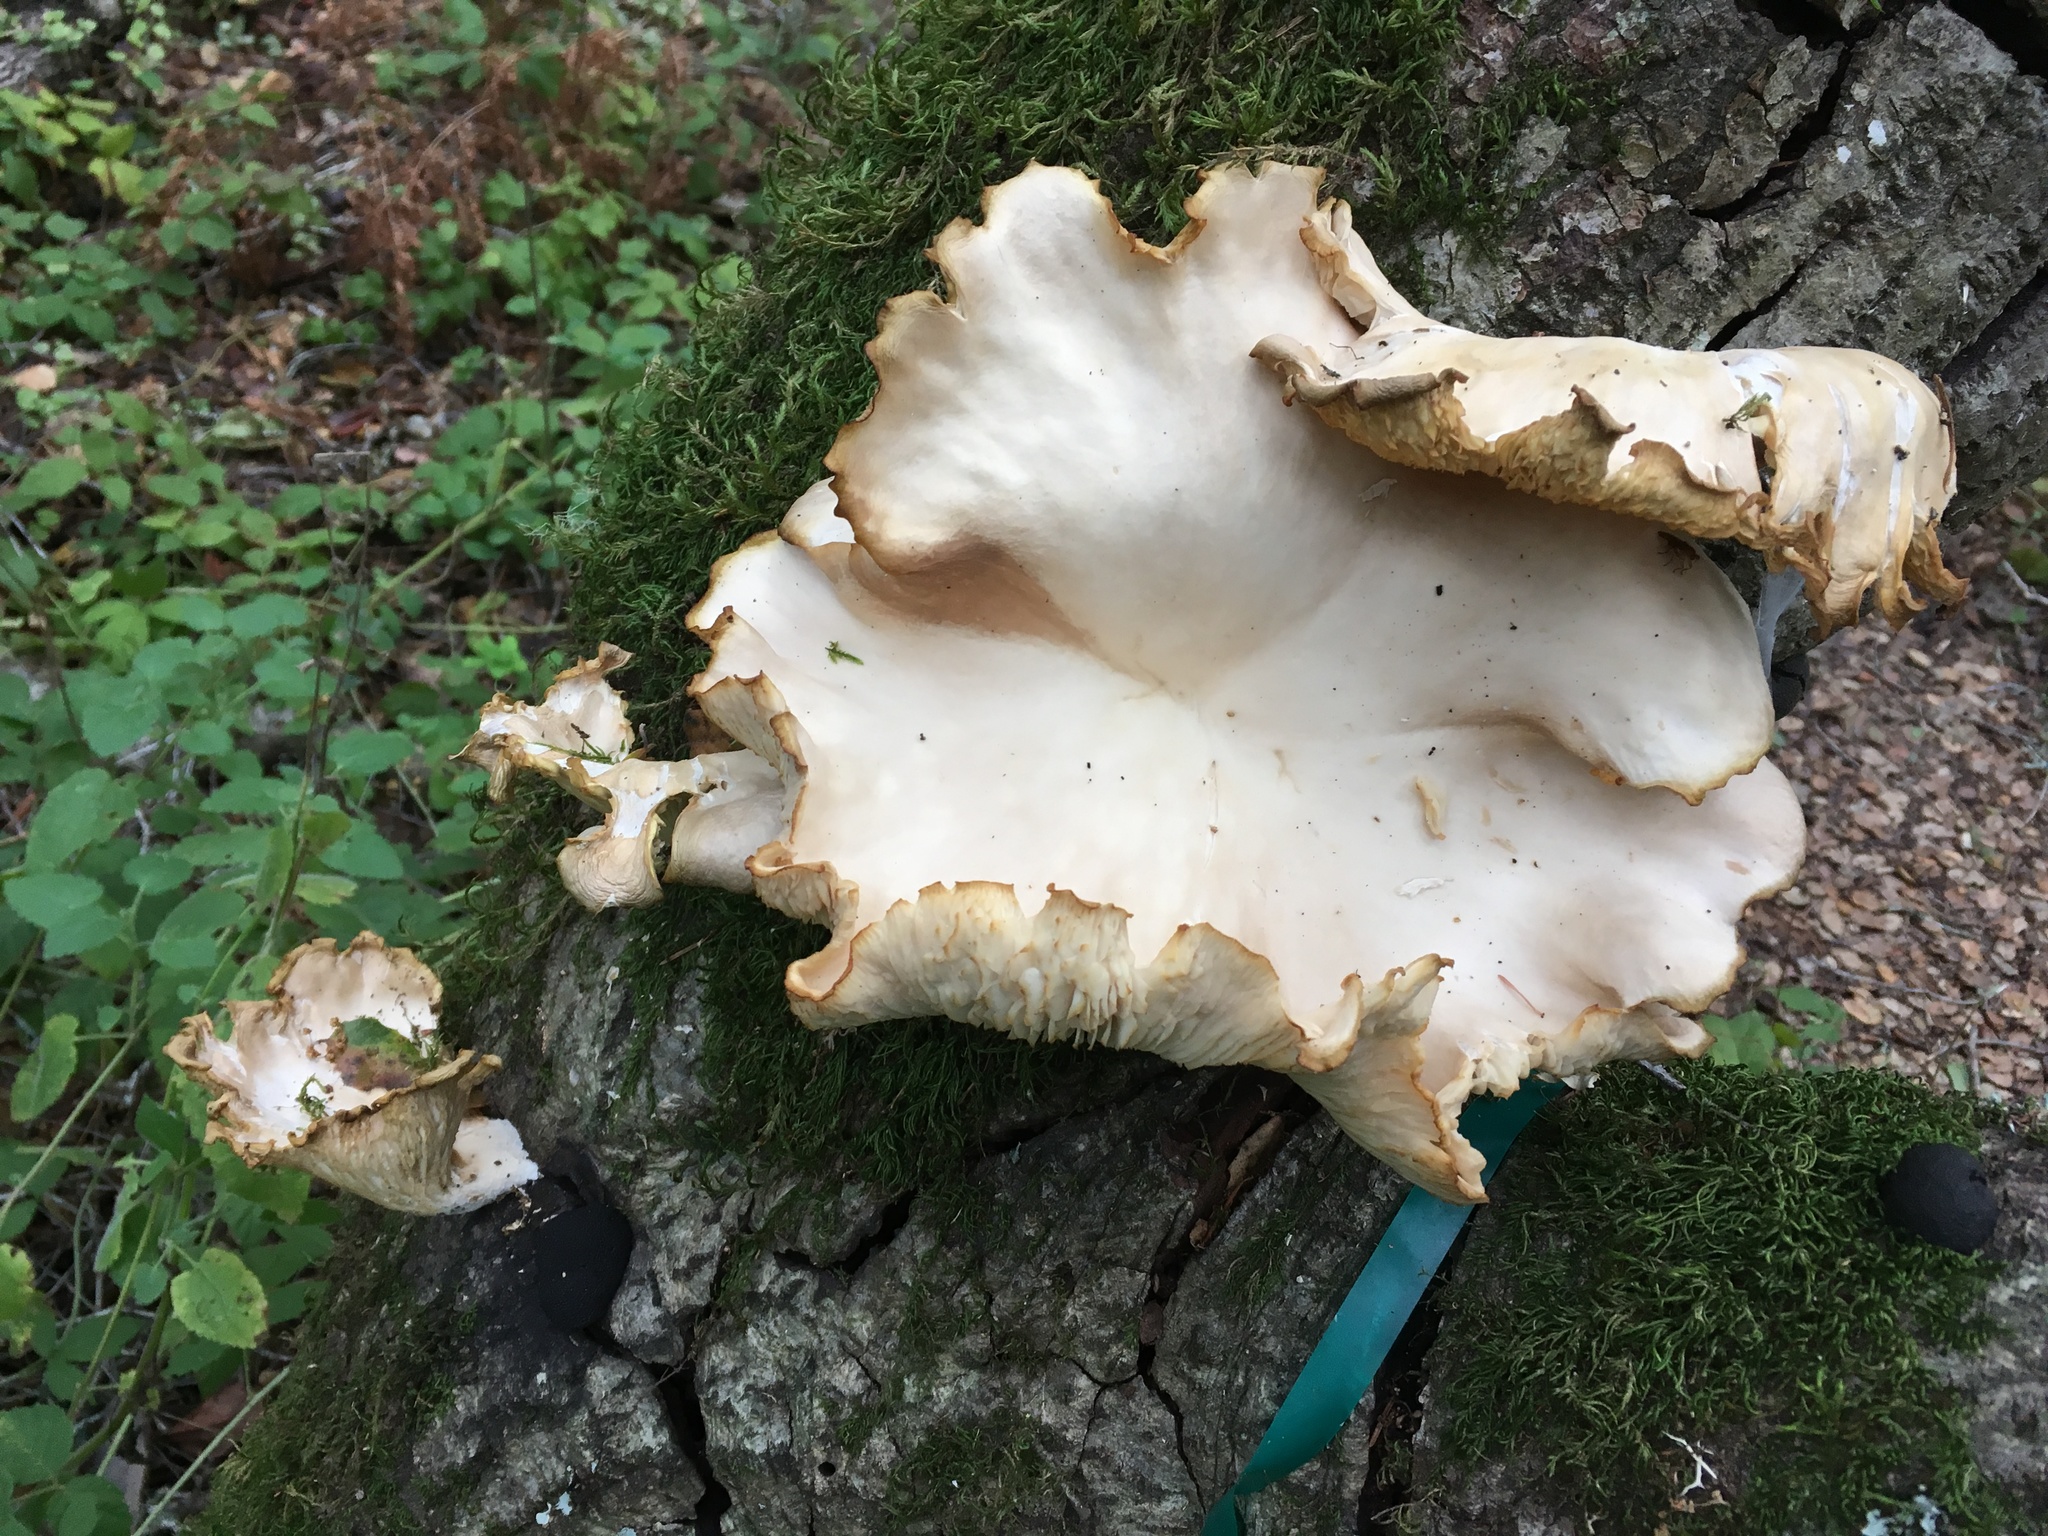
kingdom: Fungi
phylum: Basidiomycota
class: Agaricomycetes
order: Agaricales
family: Pleurotaceae
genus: Pleurotus
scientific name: Pleurotus ostreatus
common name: Oyster mushroom
